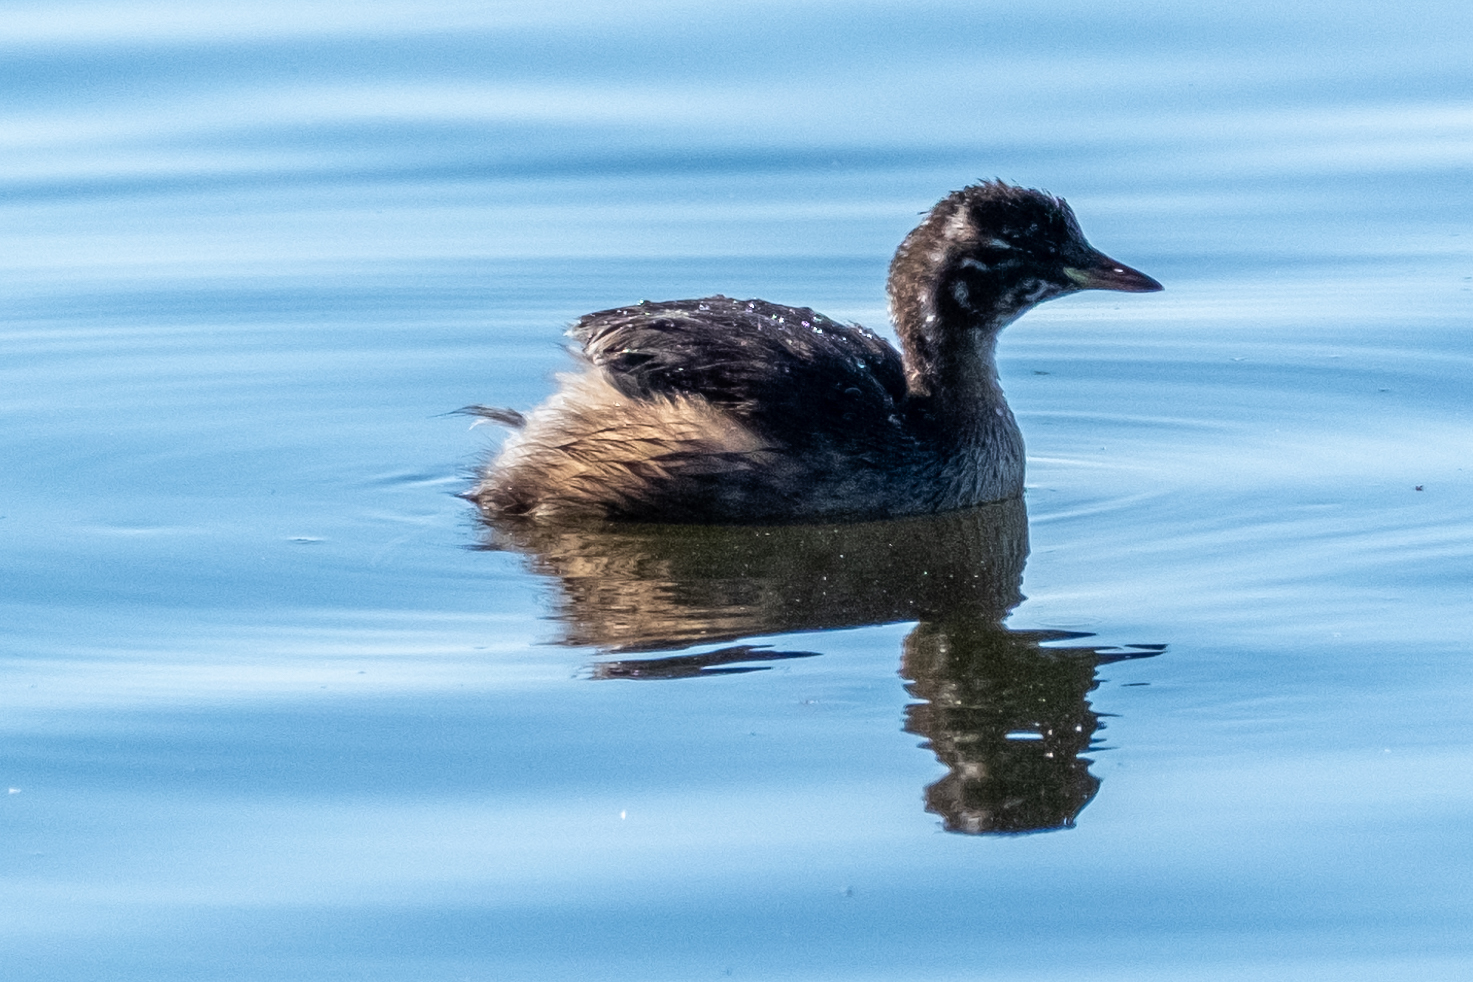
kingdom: Animalia
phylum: Chordata
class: Aves
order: Podicipediformes
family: Podicipedidae
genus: Tachybaptus
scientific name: Tachybaptus ruficollis
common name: Little grebe
